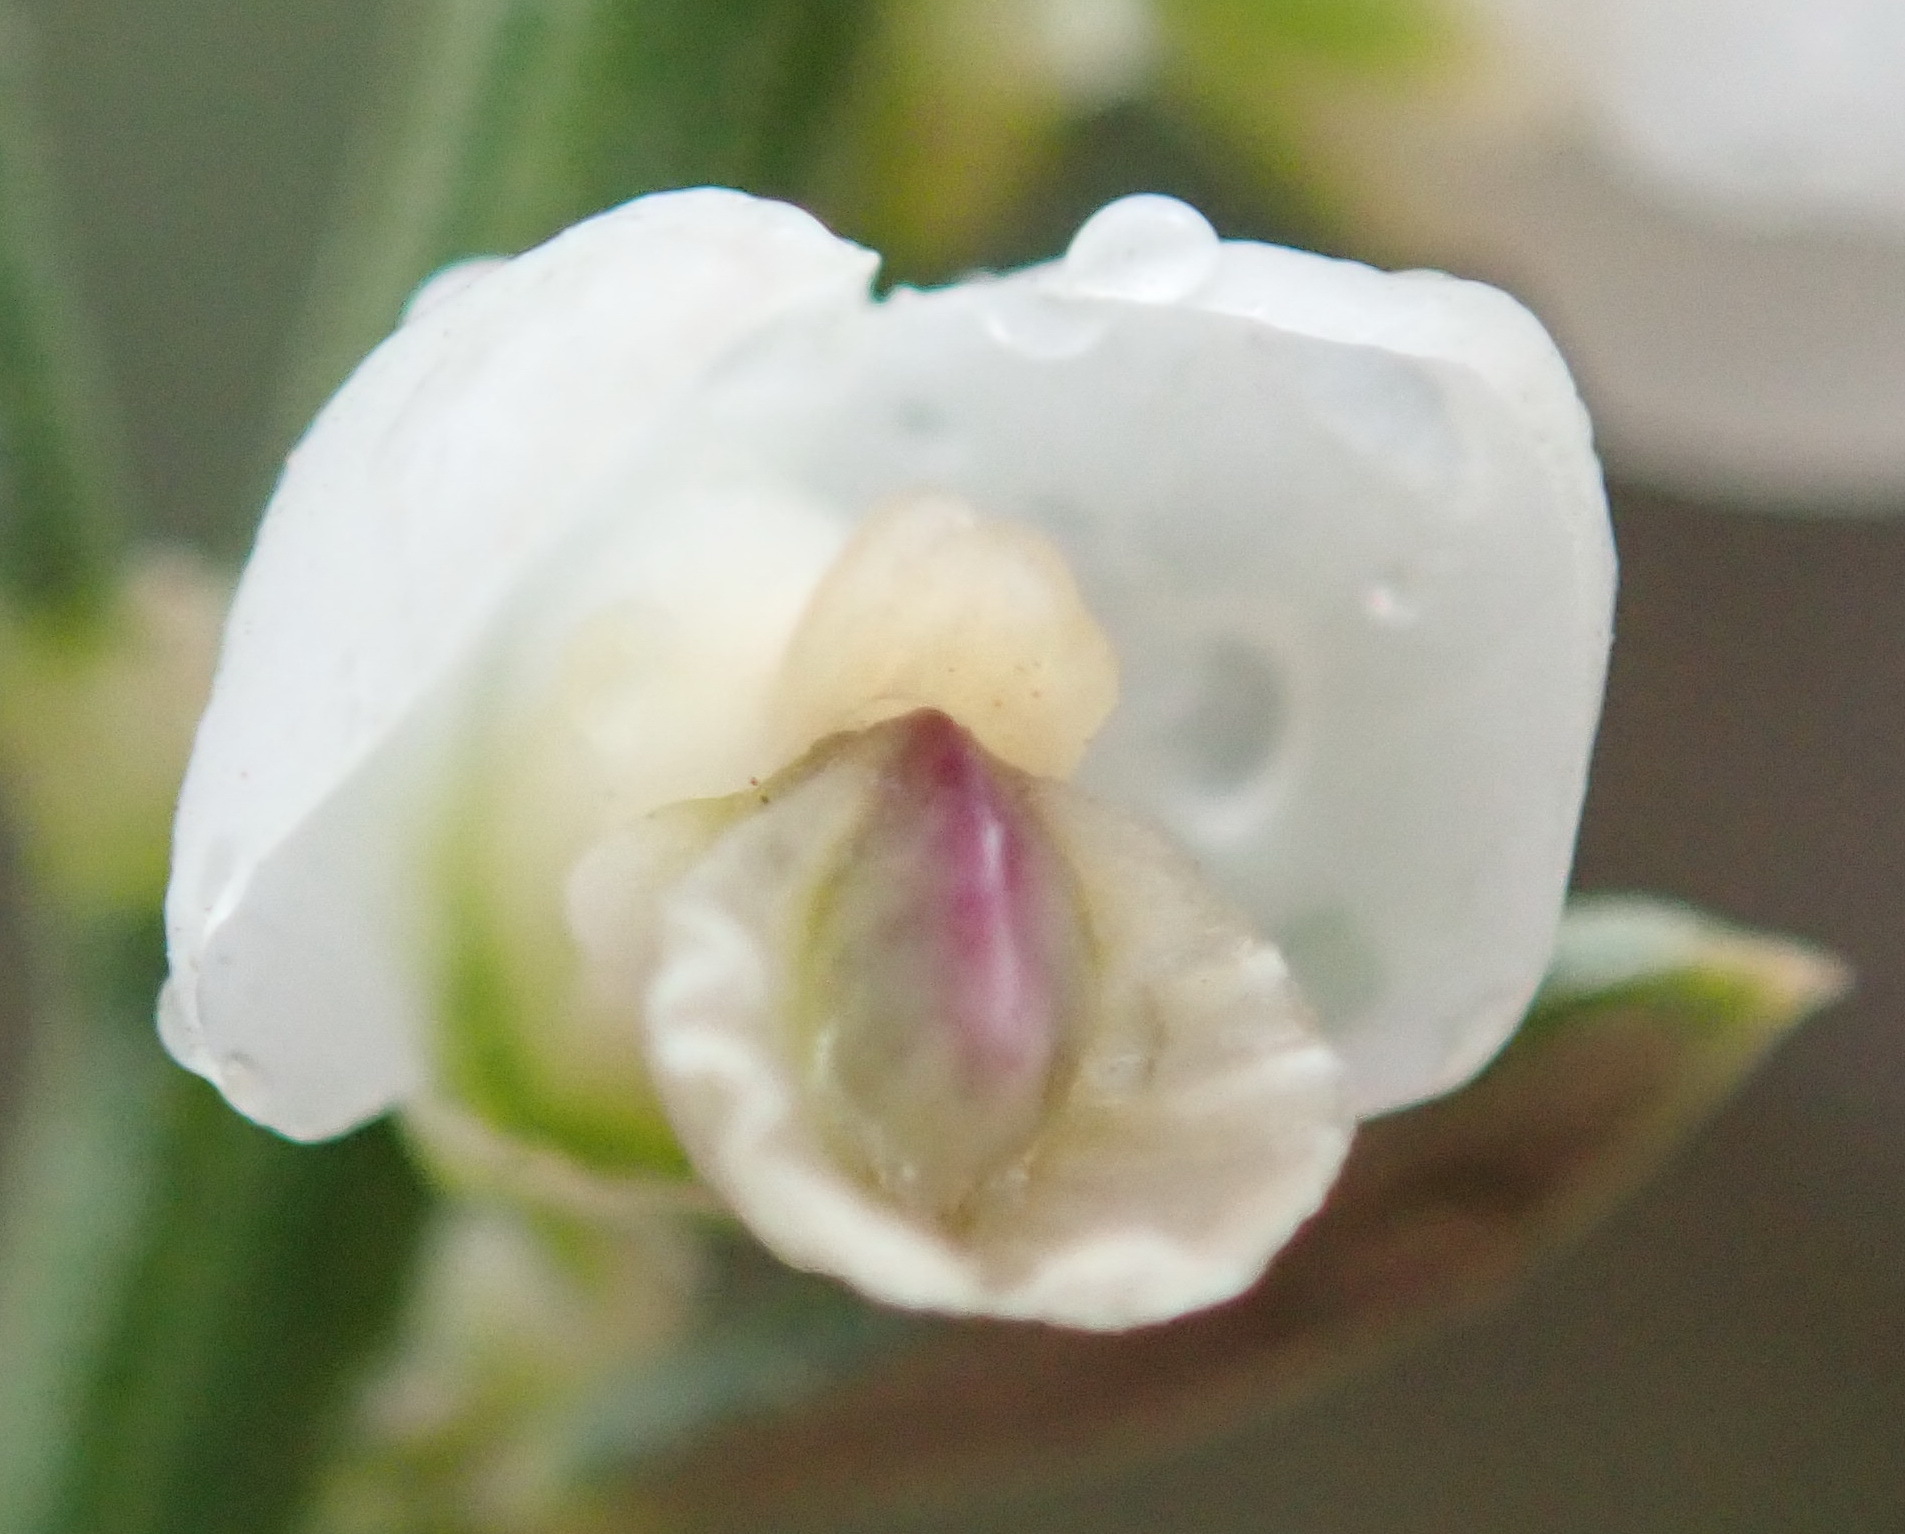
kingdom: Plantae
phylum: Tracheophyta
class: Magnoliopsida
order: Fabales
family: Polygalaceae
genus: Muraltia
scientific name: Muraltia spinosa
